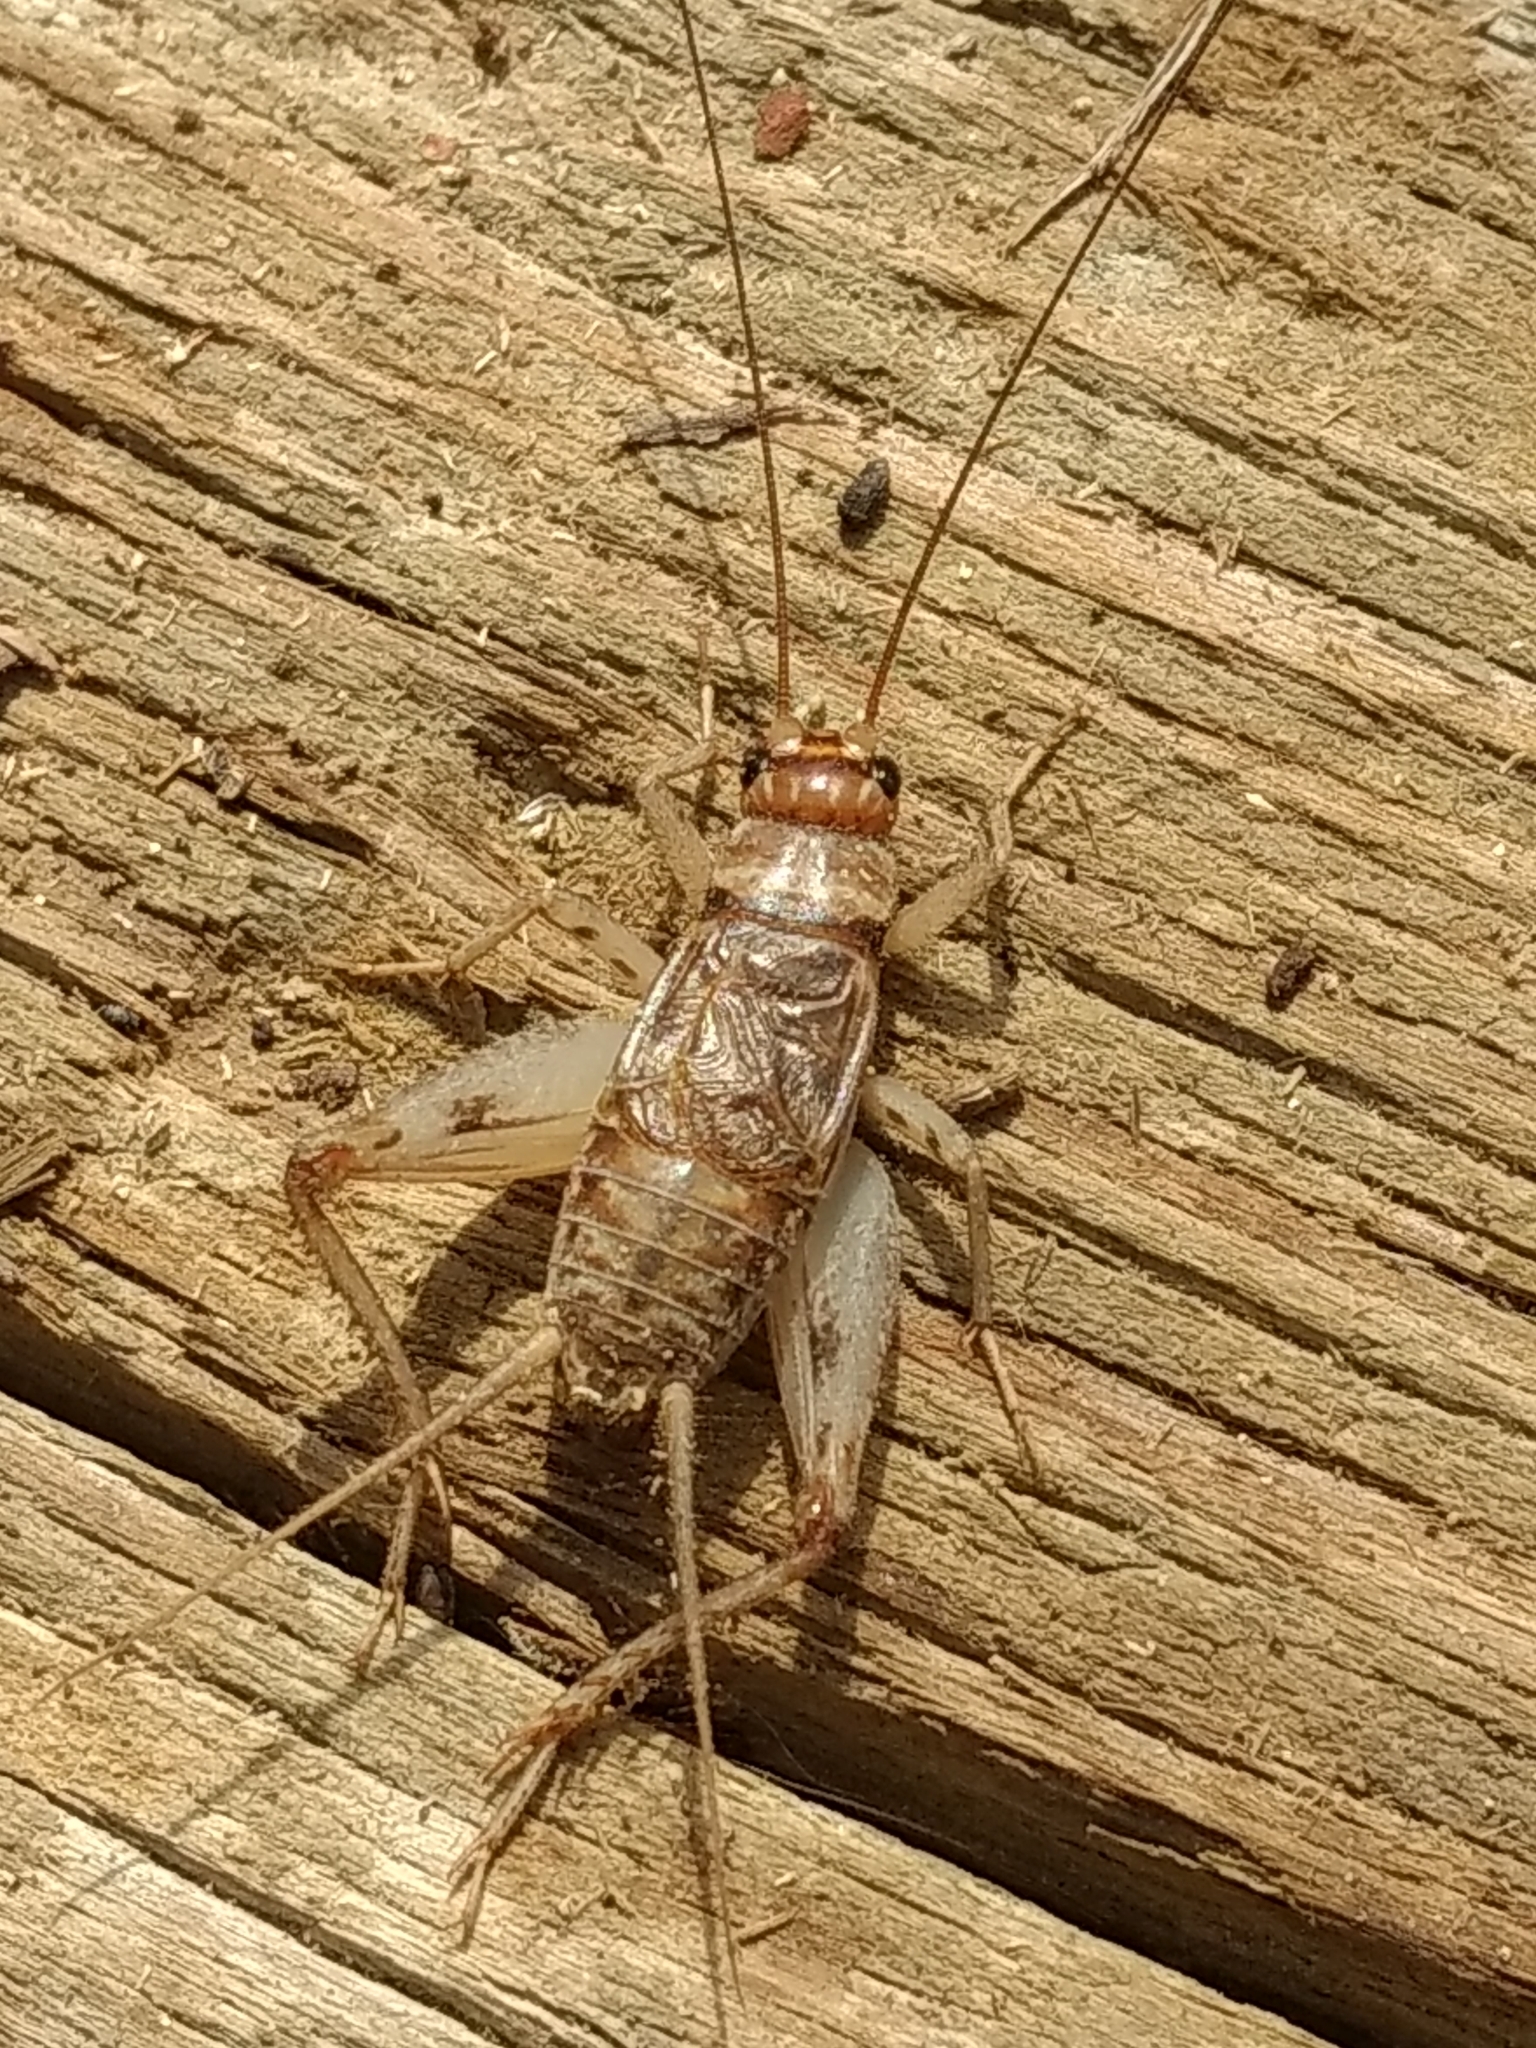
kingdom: Animalia
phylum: Arthropoda
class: Insecta
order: Orthoptera
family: Gryllidae
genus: Gryllodes
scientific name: Gryllodes sigillatus
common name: Tropical house cricket
